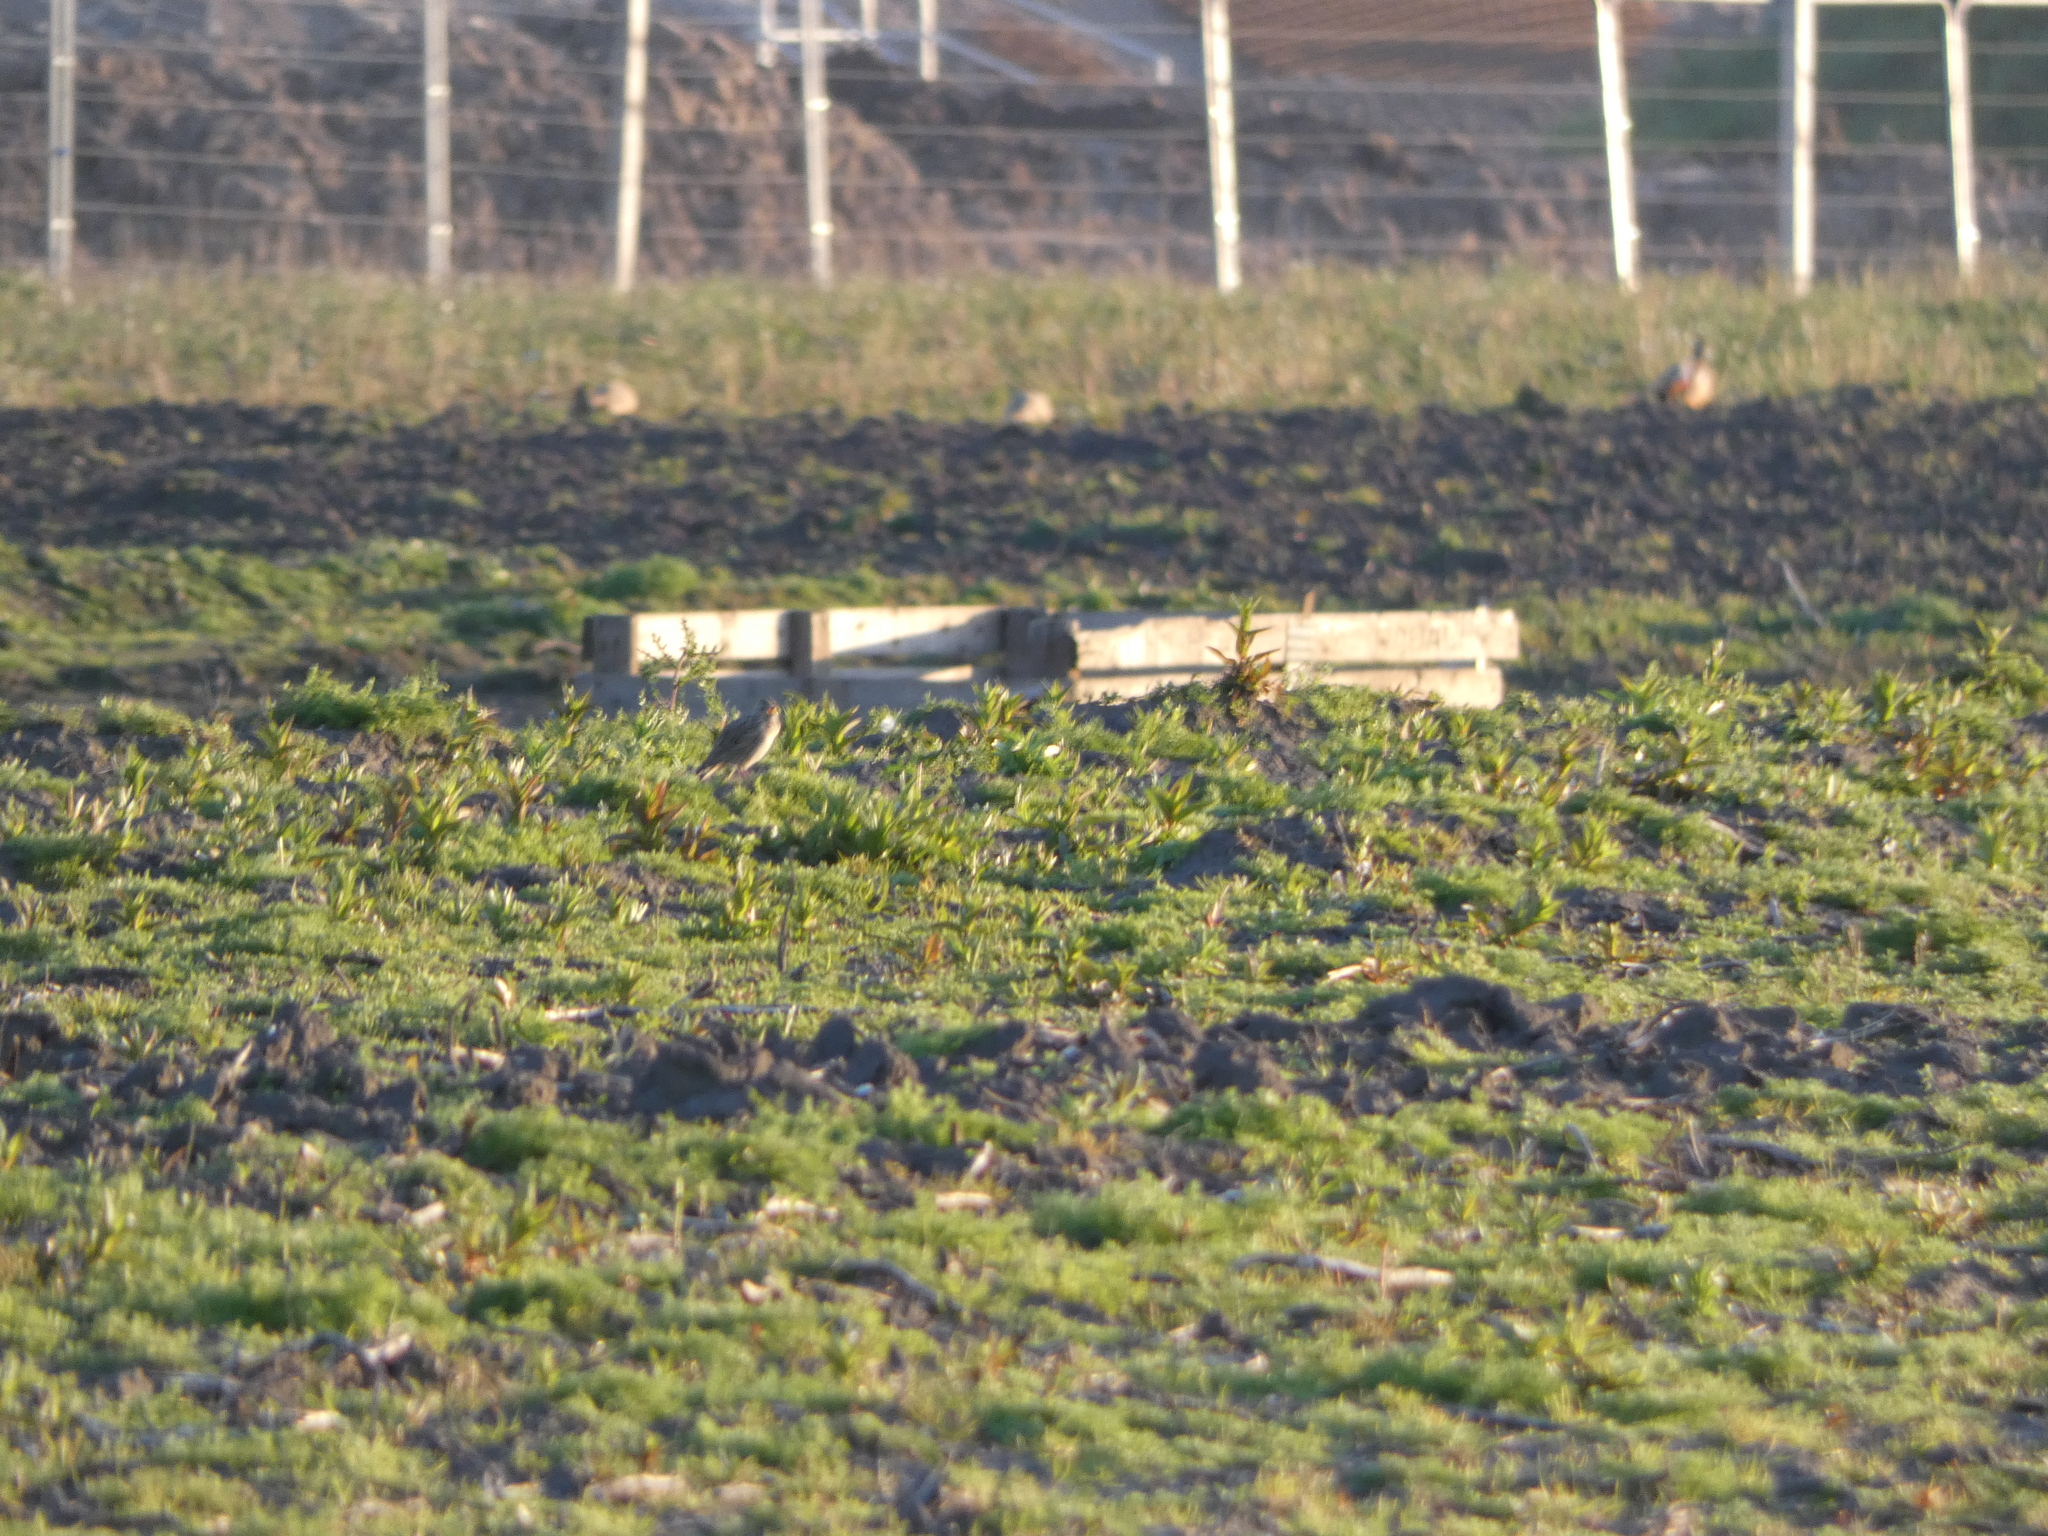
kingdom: Animalia
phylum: Chordata
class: Aves
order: Passeriformes
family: Alaudidae
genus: Alauda
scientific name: Alauda arvensis
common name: Eurasian skylark
